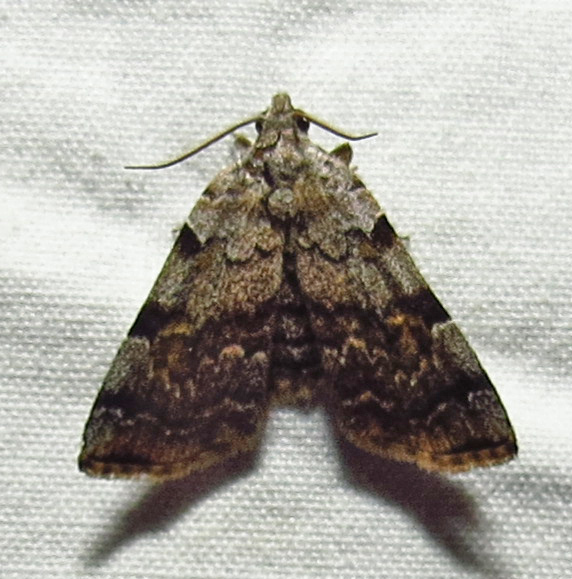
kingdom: Animalia
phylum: Arthropoda
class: Insecta
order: Lepidoptera
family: Erebidae
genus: Idia
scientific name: Idia americalis
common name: American idia moth
